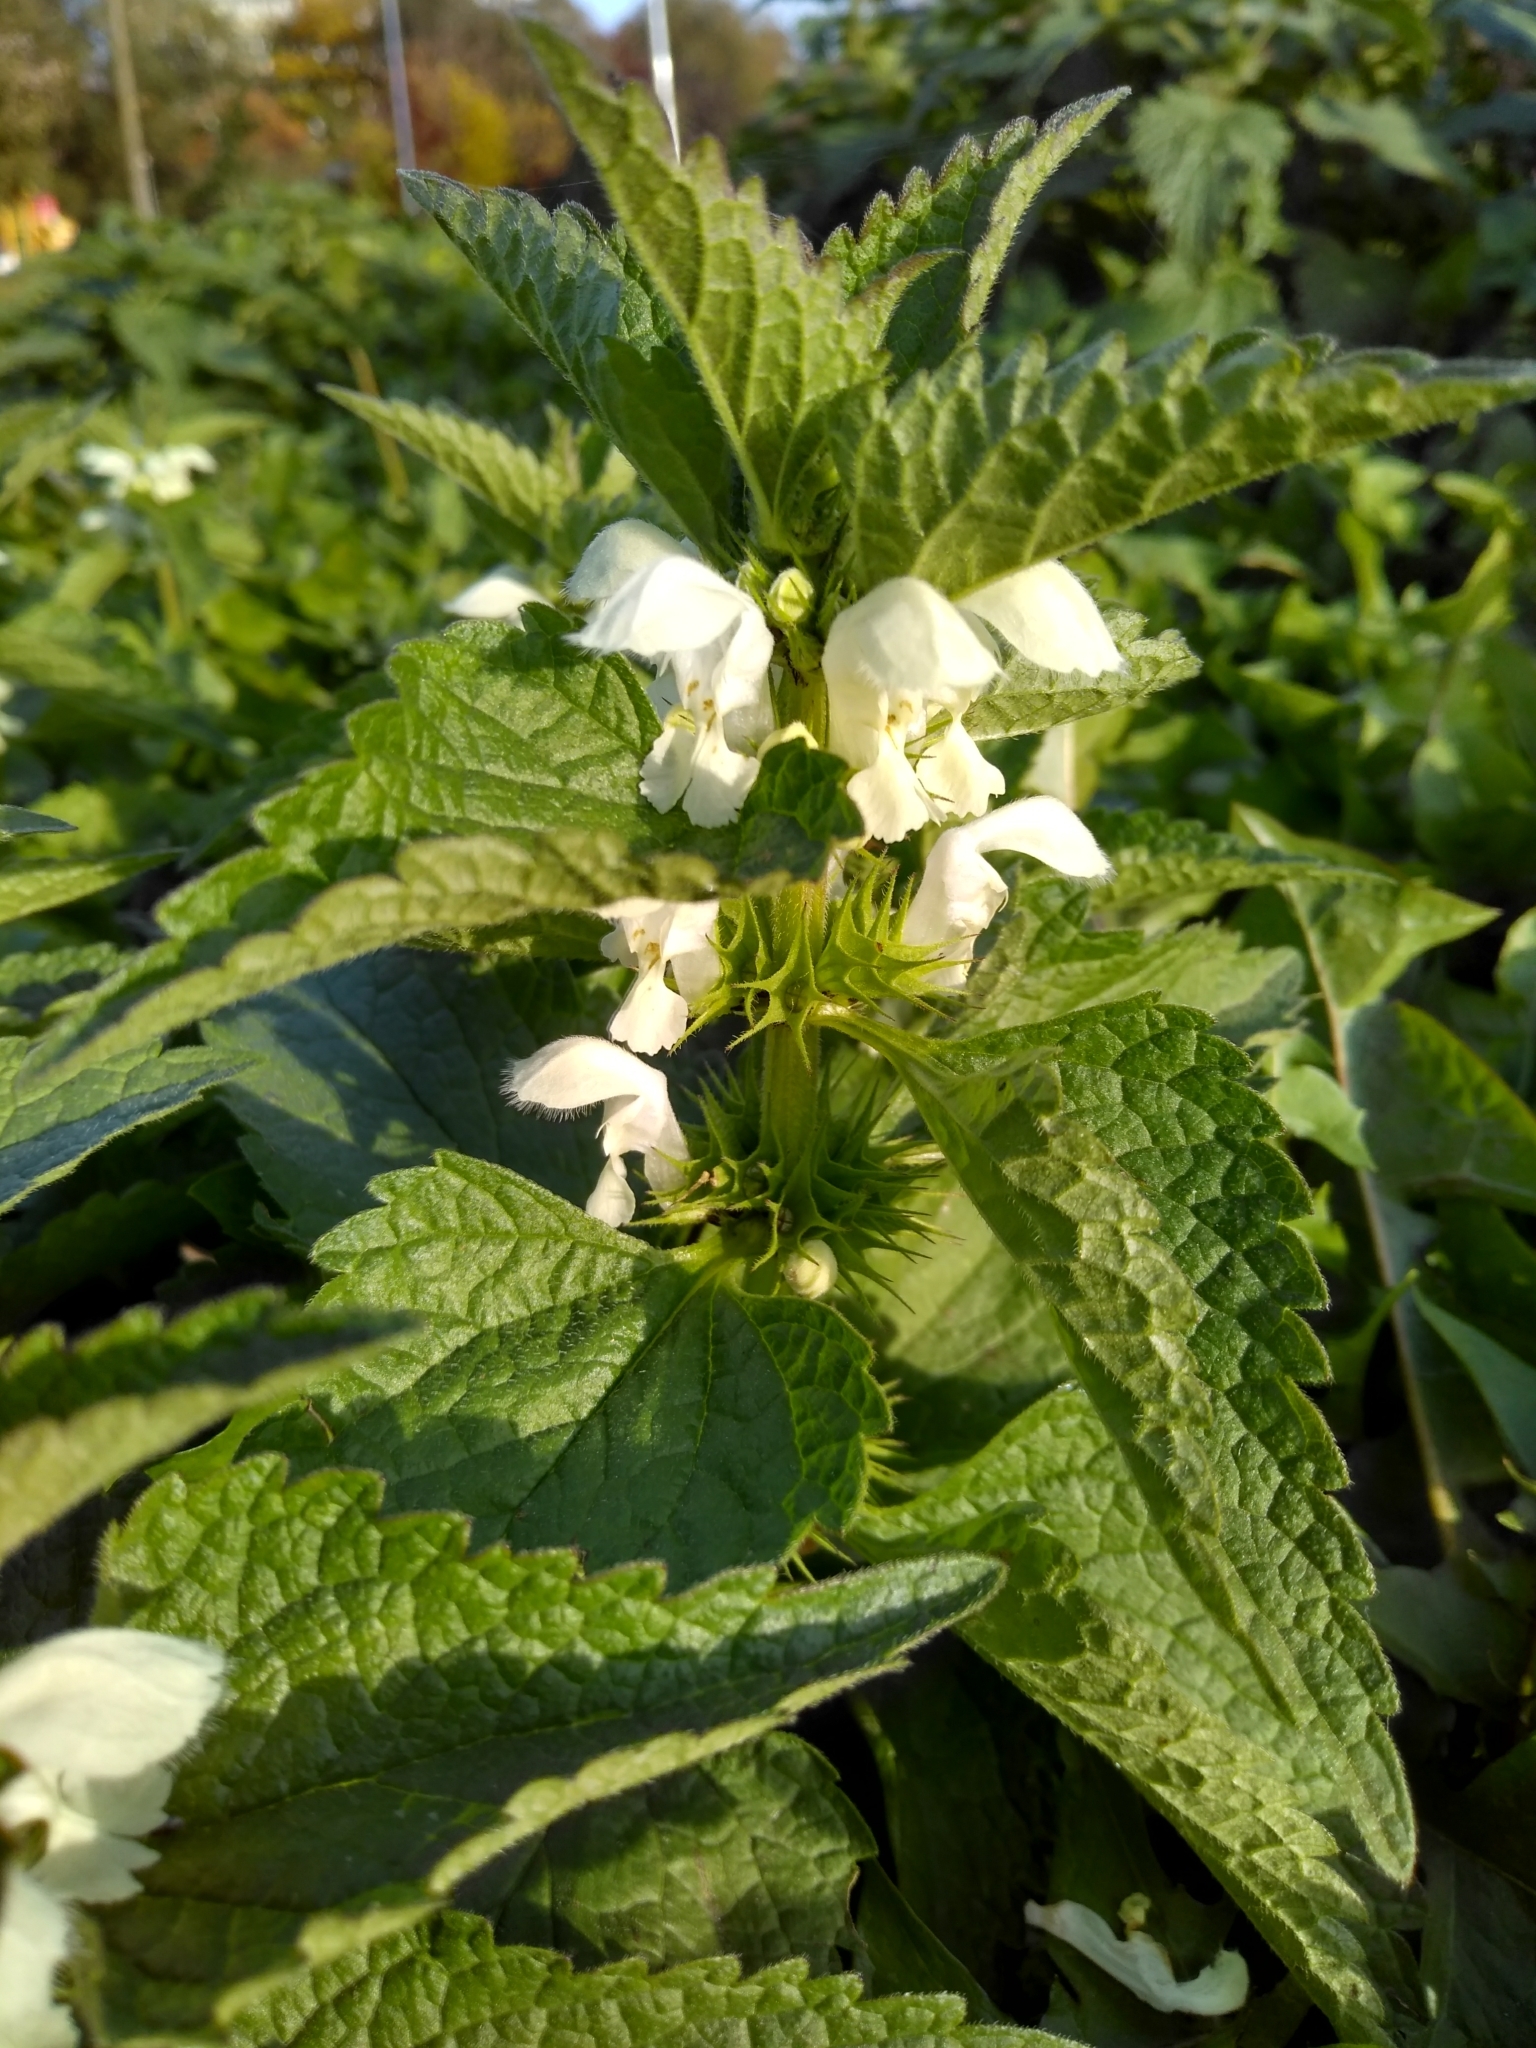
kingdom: Plantae
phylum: Tracheophyta
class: Magnoliopsida
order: Lamiales
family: Lamiaceae
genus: Lamium
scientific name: Lamium album
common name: White dead-nettle
